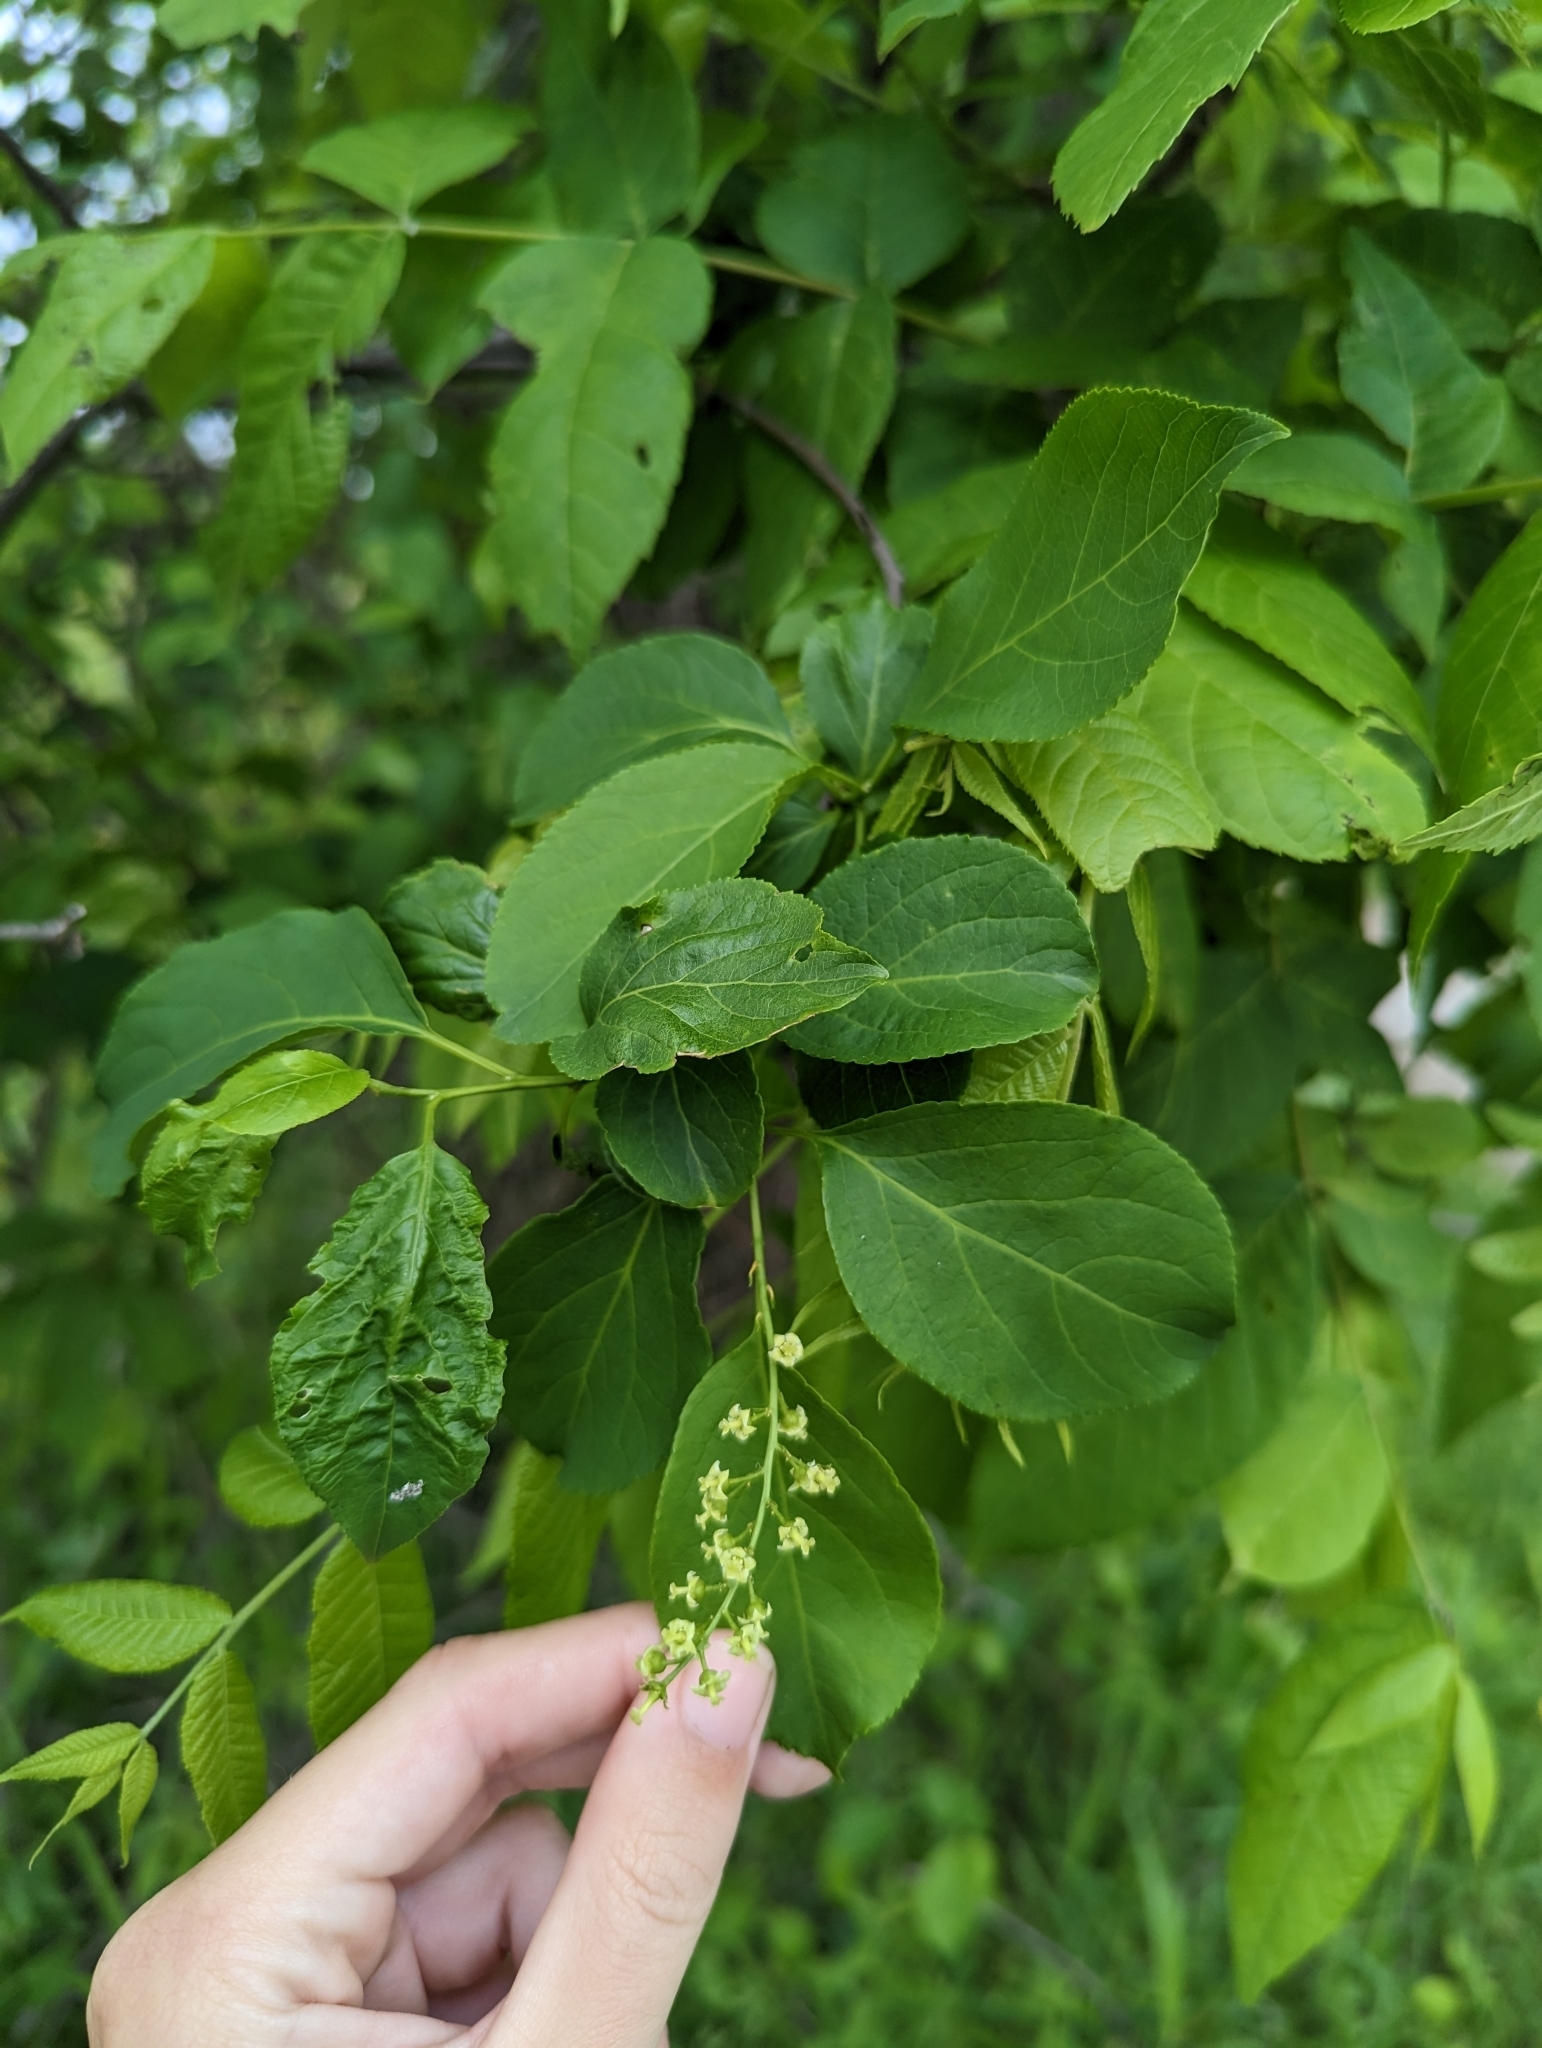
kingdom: Plantae
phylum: Tracheophyta
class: Magnoliopsida
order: Celastrales
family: Celastraceae
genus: Celastrus
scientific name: Celastrus scandens
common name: American bittersweet
